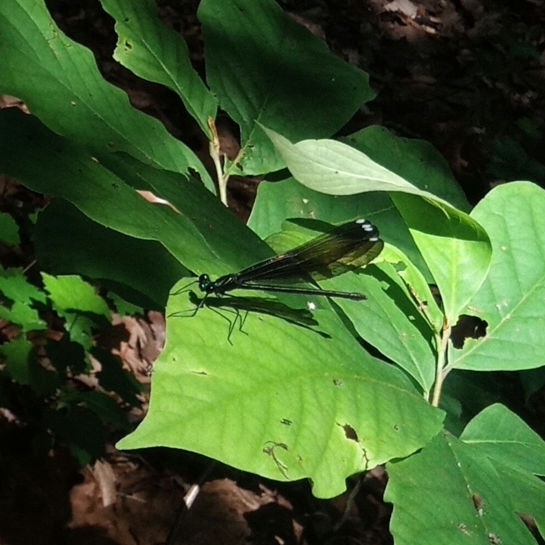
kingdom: Animalia
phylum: Arthropoda
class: Insecta
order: Odonata
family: Calopterygidae
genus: Calopteryx
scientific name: Calopteryx maculata
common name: Ebony jewelwing
